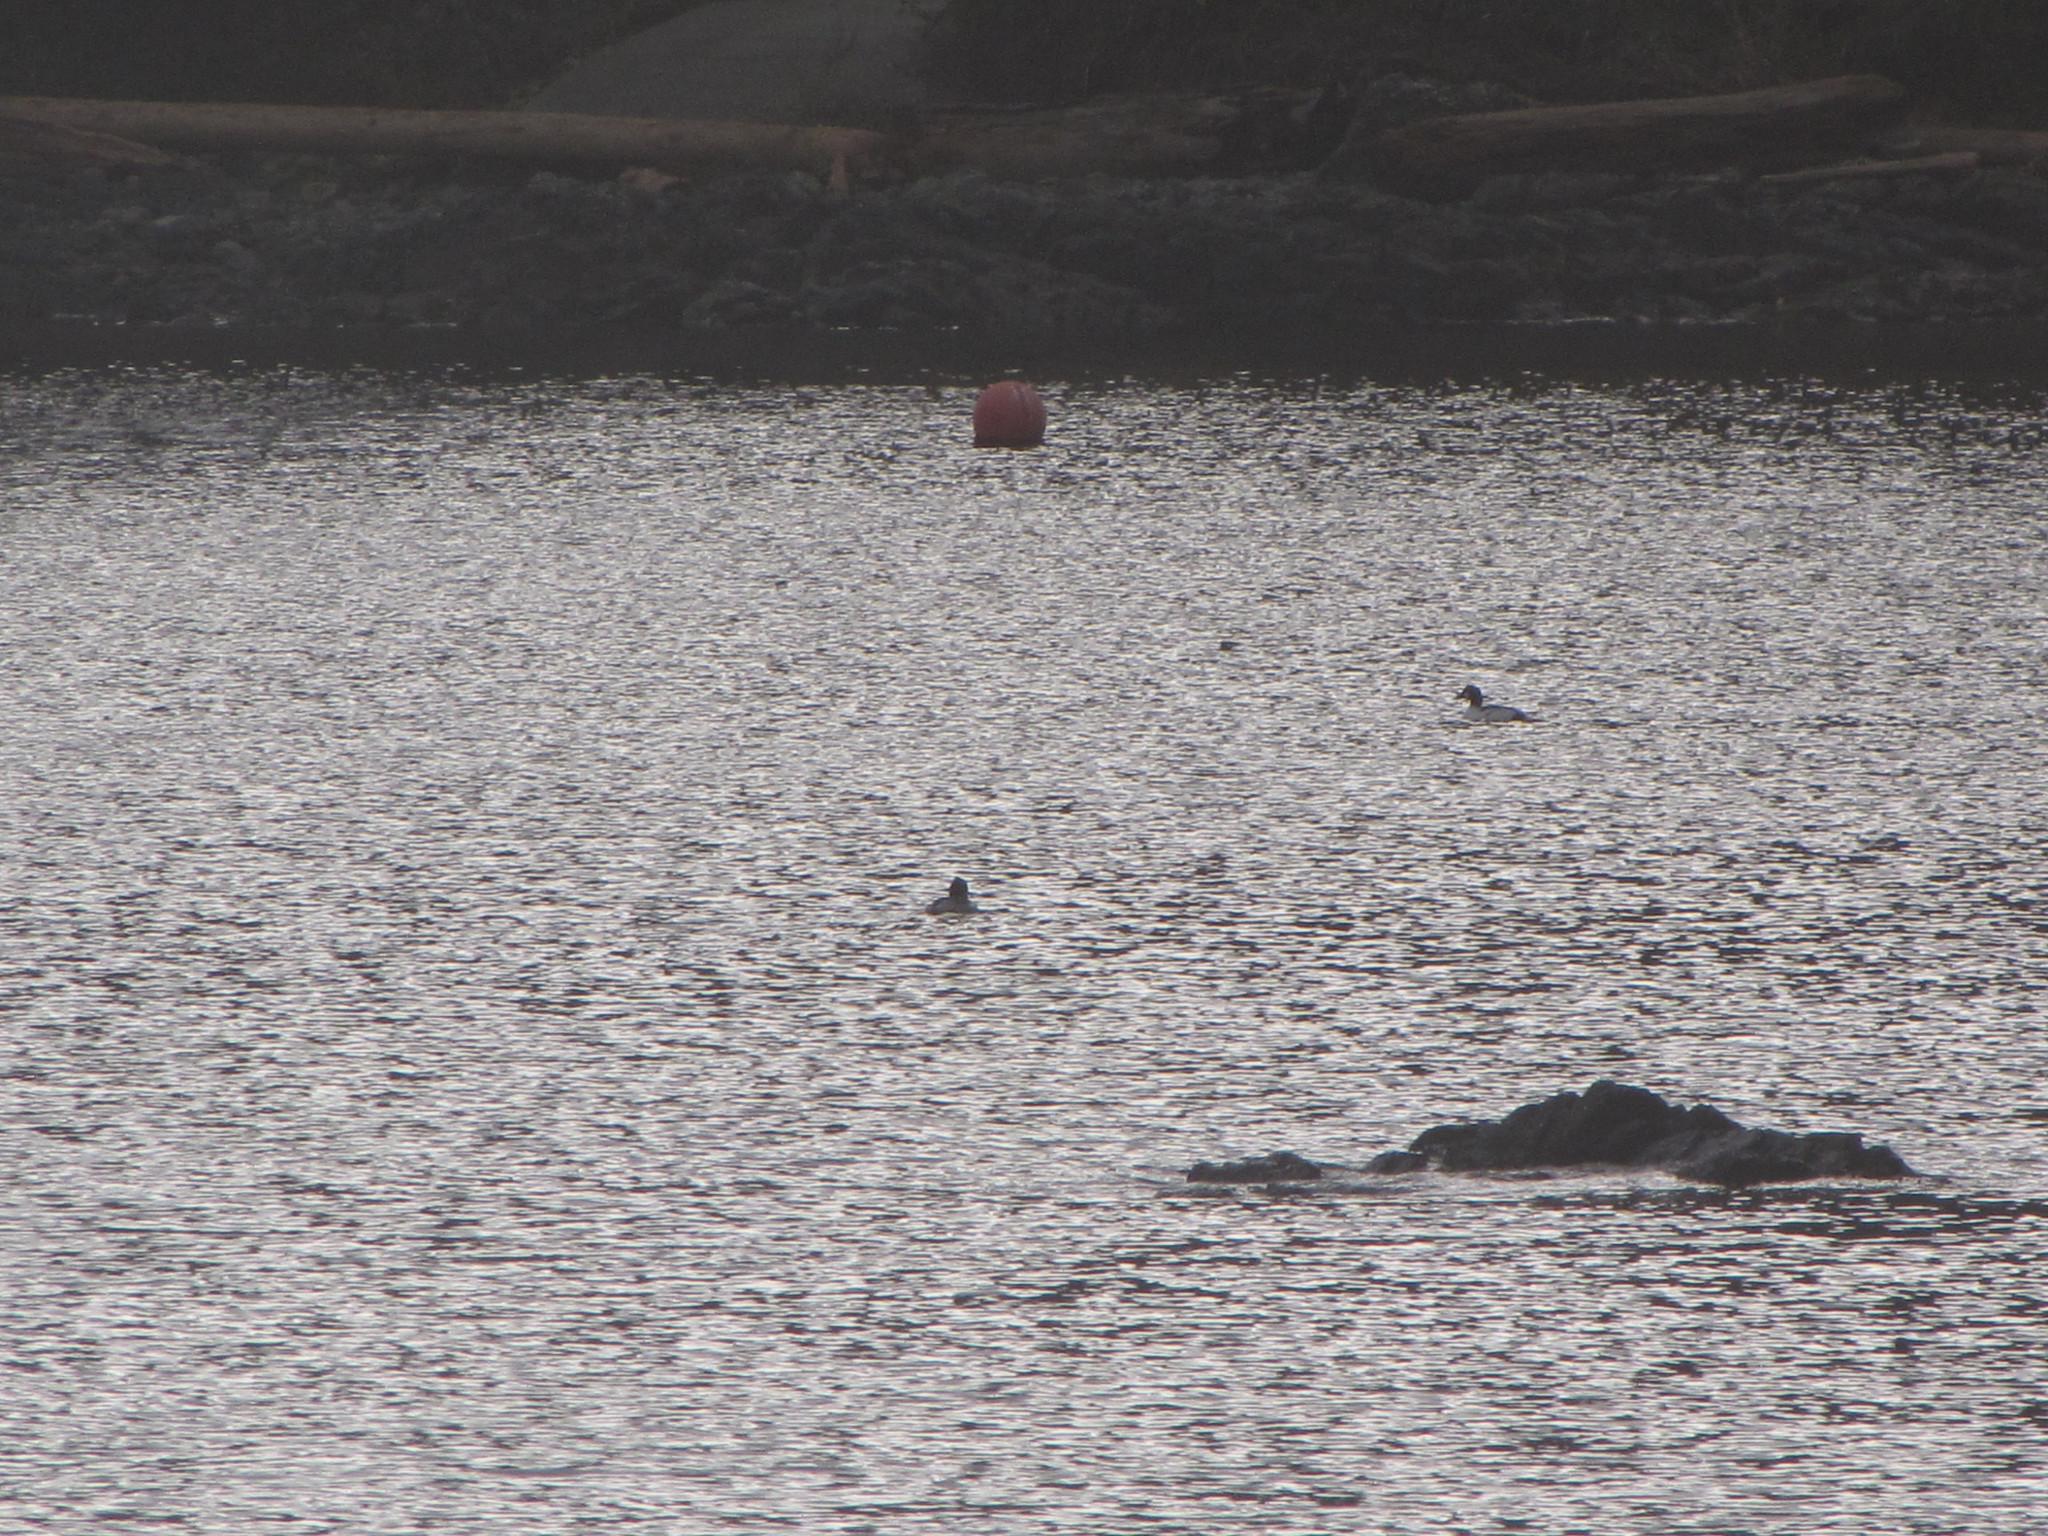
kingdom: Animalia
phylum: Chordata
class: Aves
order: Anseriformes
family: Anatidae
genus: Bucephala
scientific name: Bucephala clangula
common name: Common goldeneye
